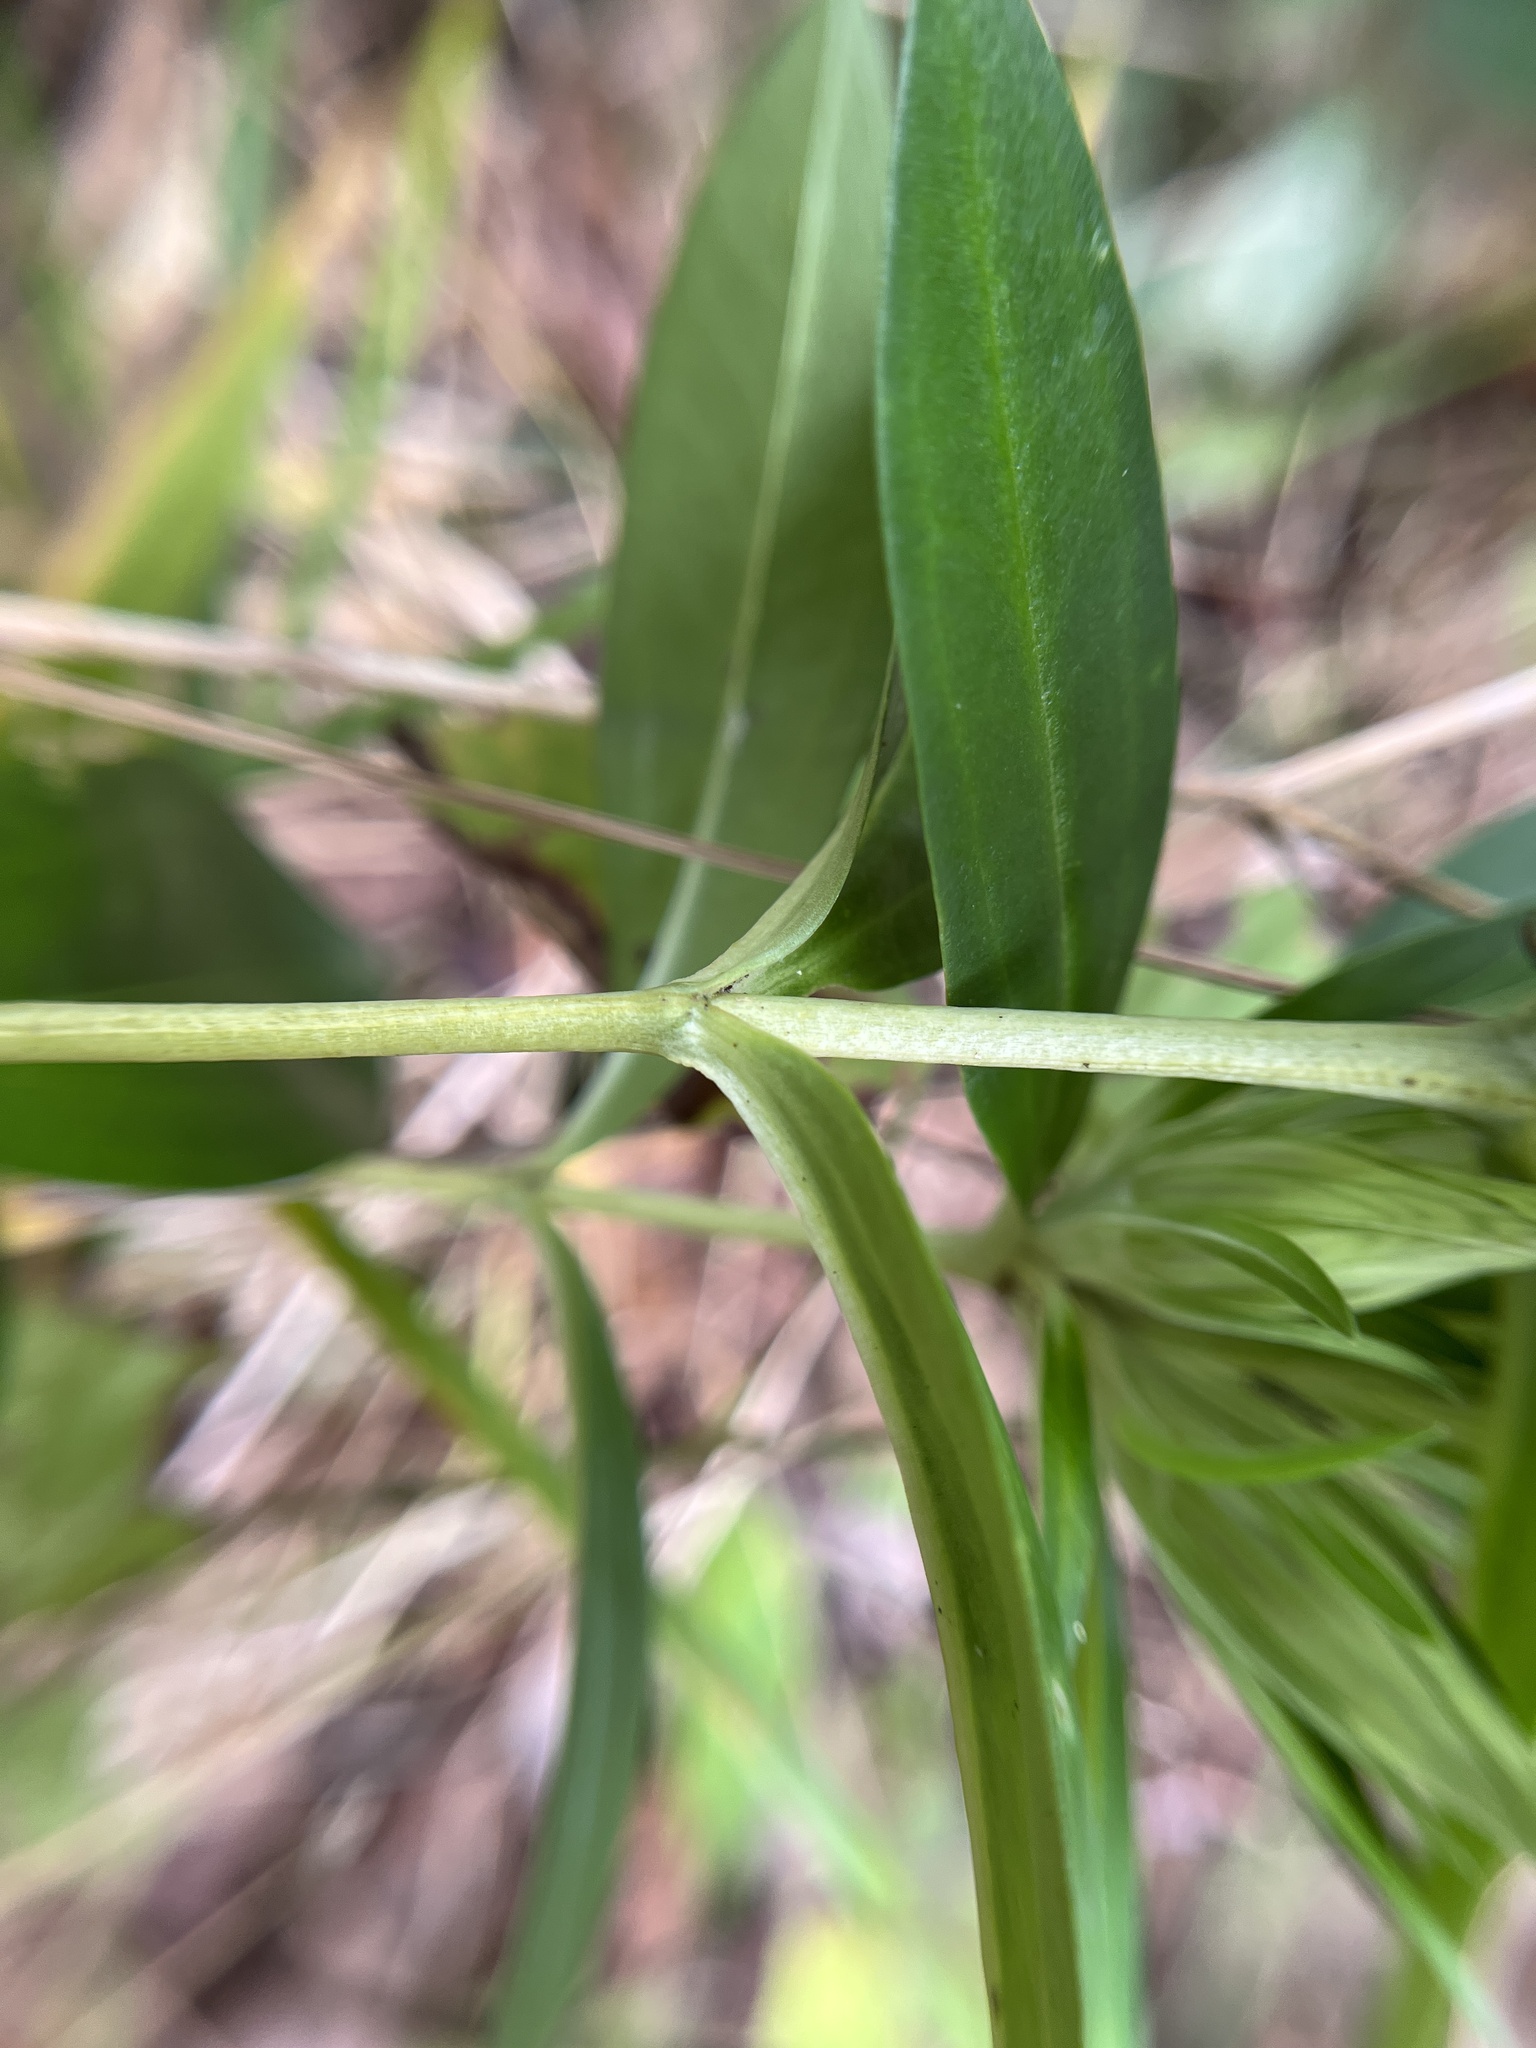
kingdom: Plantae
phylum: Tracheophyta
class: Magnoliopsida
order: Gentianales
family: Gentianaceae
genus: Gentiana
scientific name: Gentiana villosa
